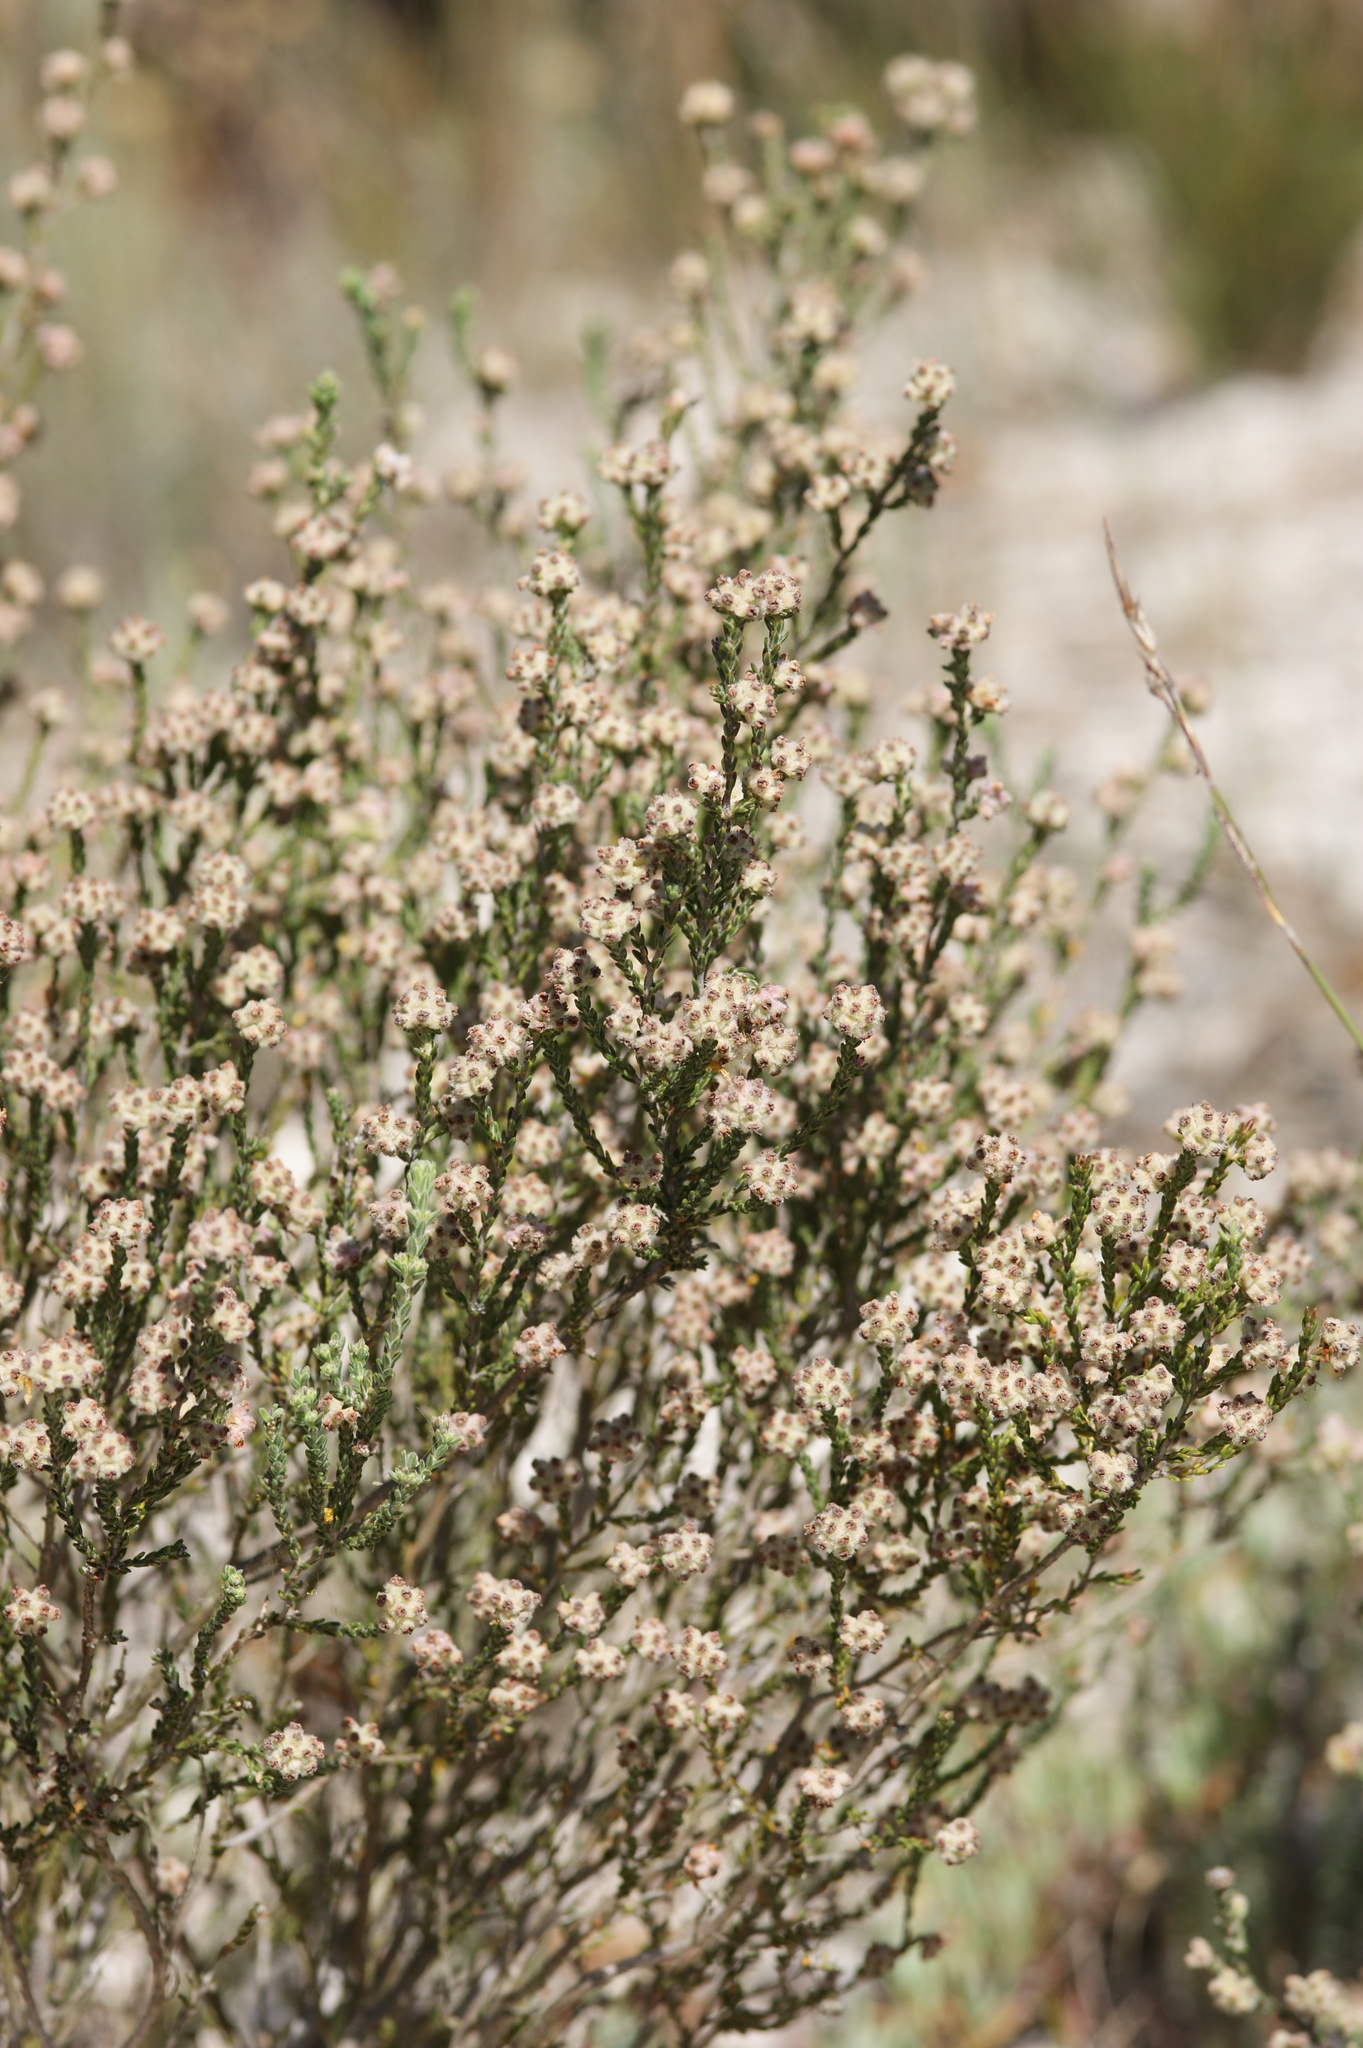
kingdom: Plantae
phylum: Tracheophyta
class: Magnoliopsida
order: Ericales
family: Ericaceae
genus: Erica
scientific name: Erica plumosa
